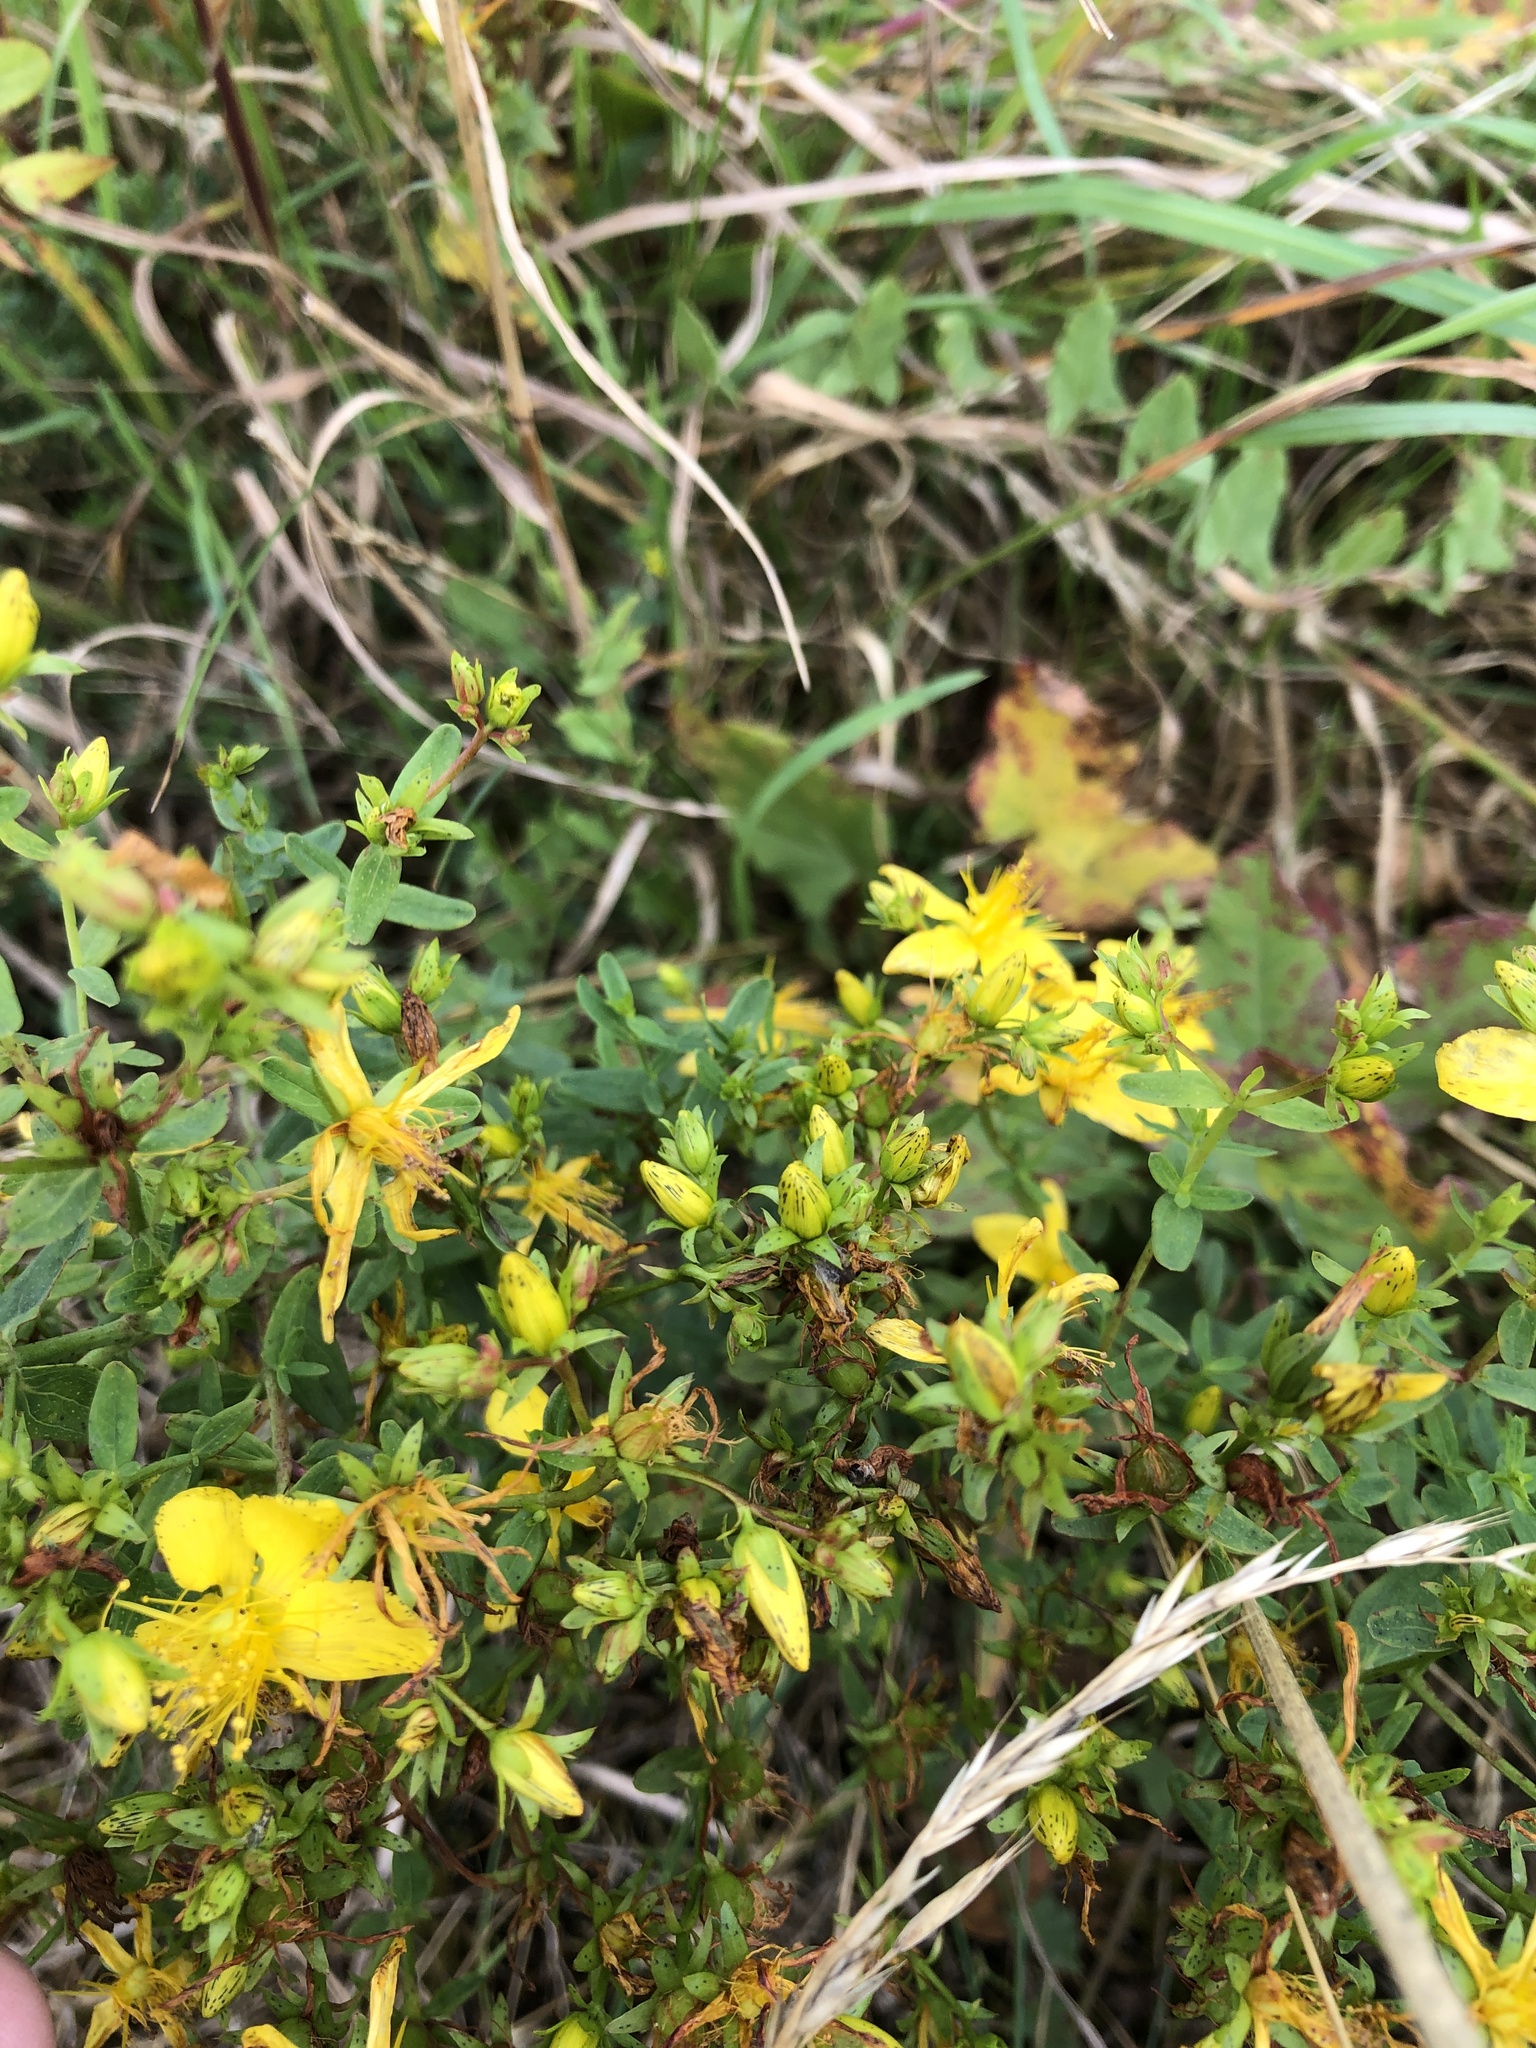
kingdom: Plantae
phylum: Tracheophyta
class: Magnoliopsida
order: Malpighiales
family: Hypericaceae
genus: Hypericum
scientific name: Hypericum perforatum
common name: Common st. johnswort
